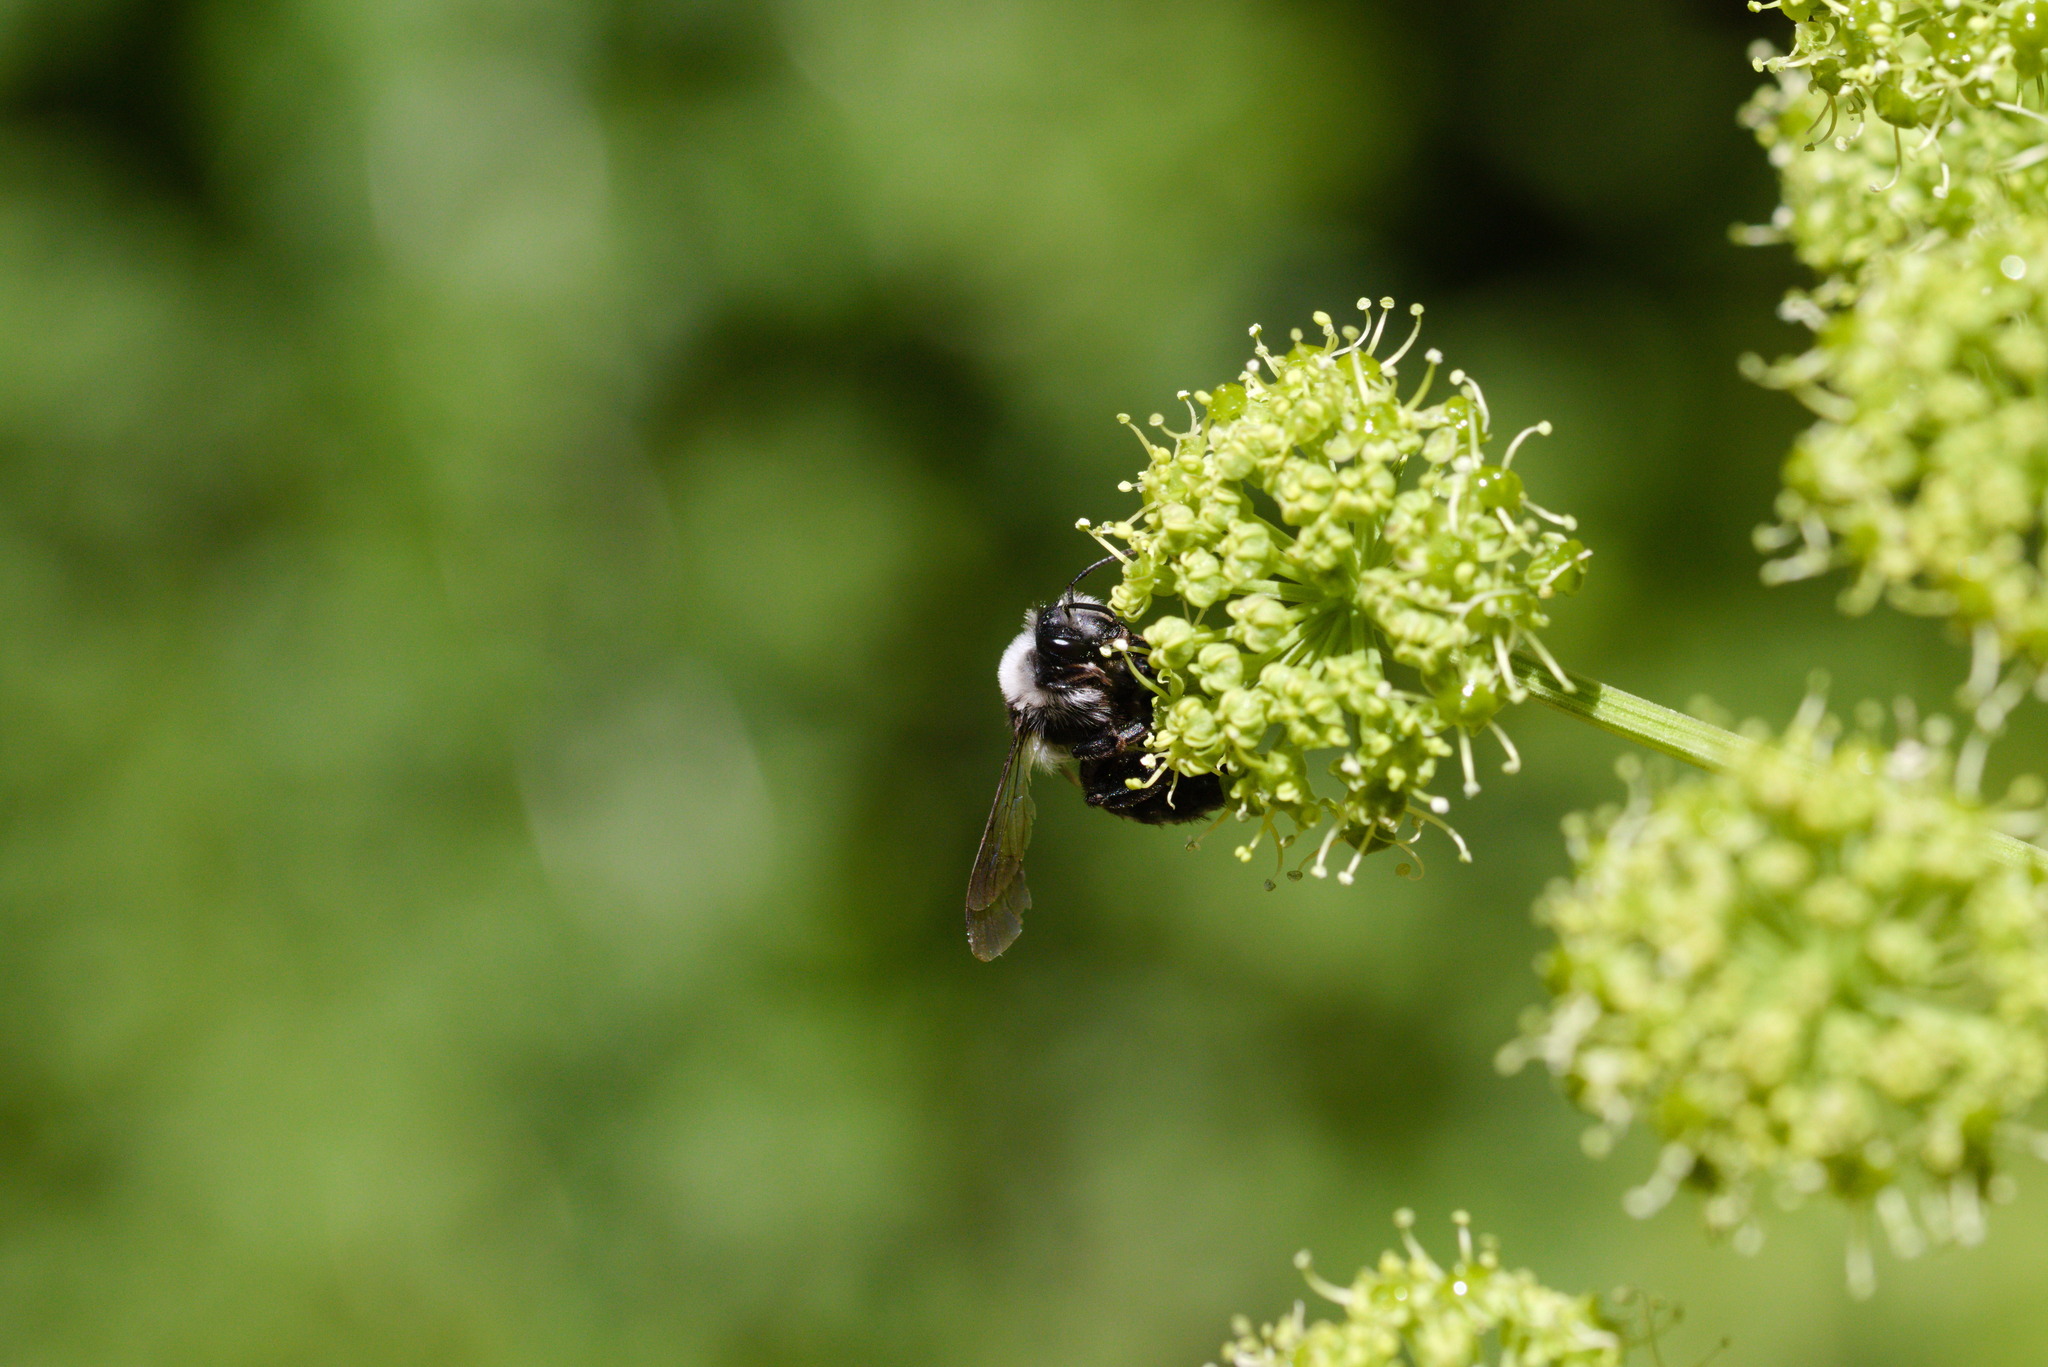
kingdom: Animalia
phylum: Arthropoda
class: Insecta
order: Hymenoptera
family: Andrenidae
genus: Andrena
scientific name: Andrena cineraria
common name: Ashy mining bee
